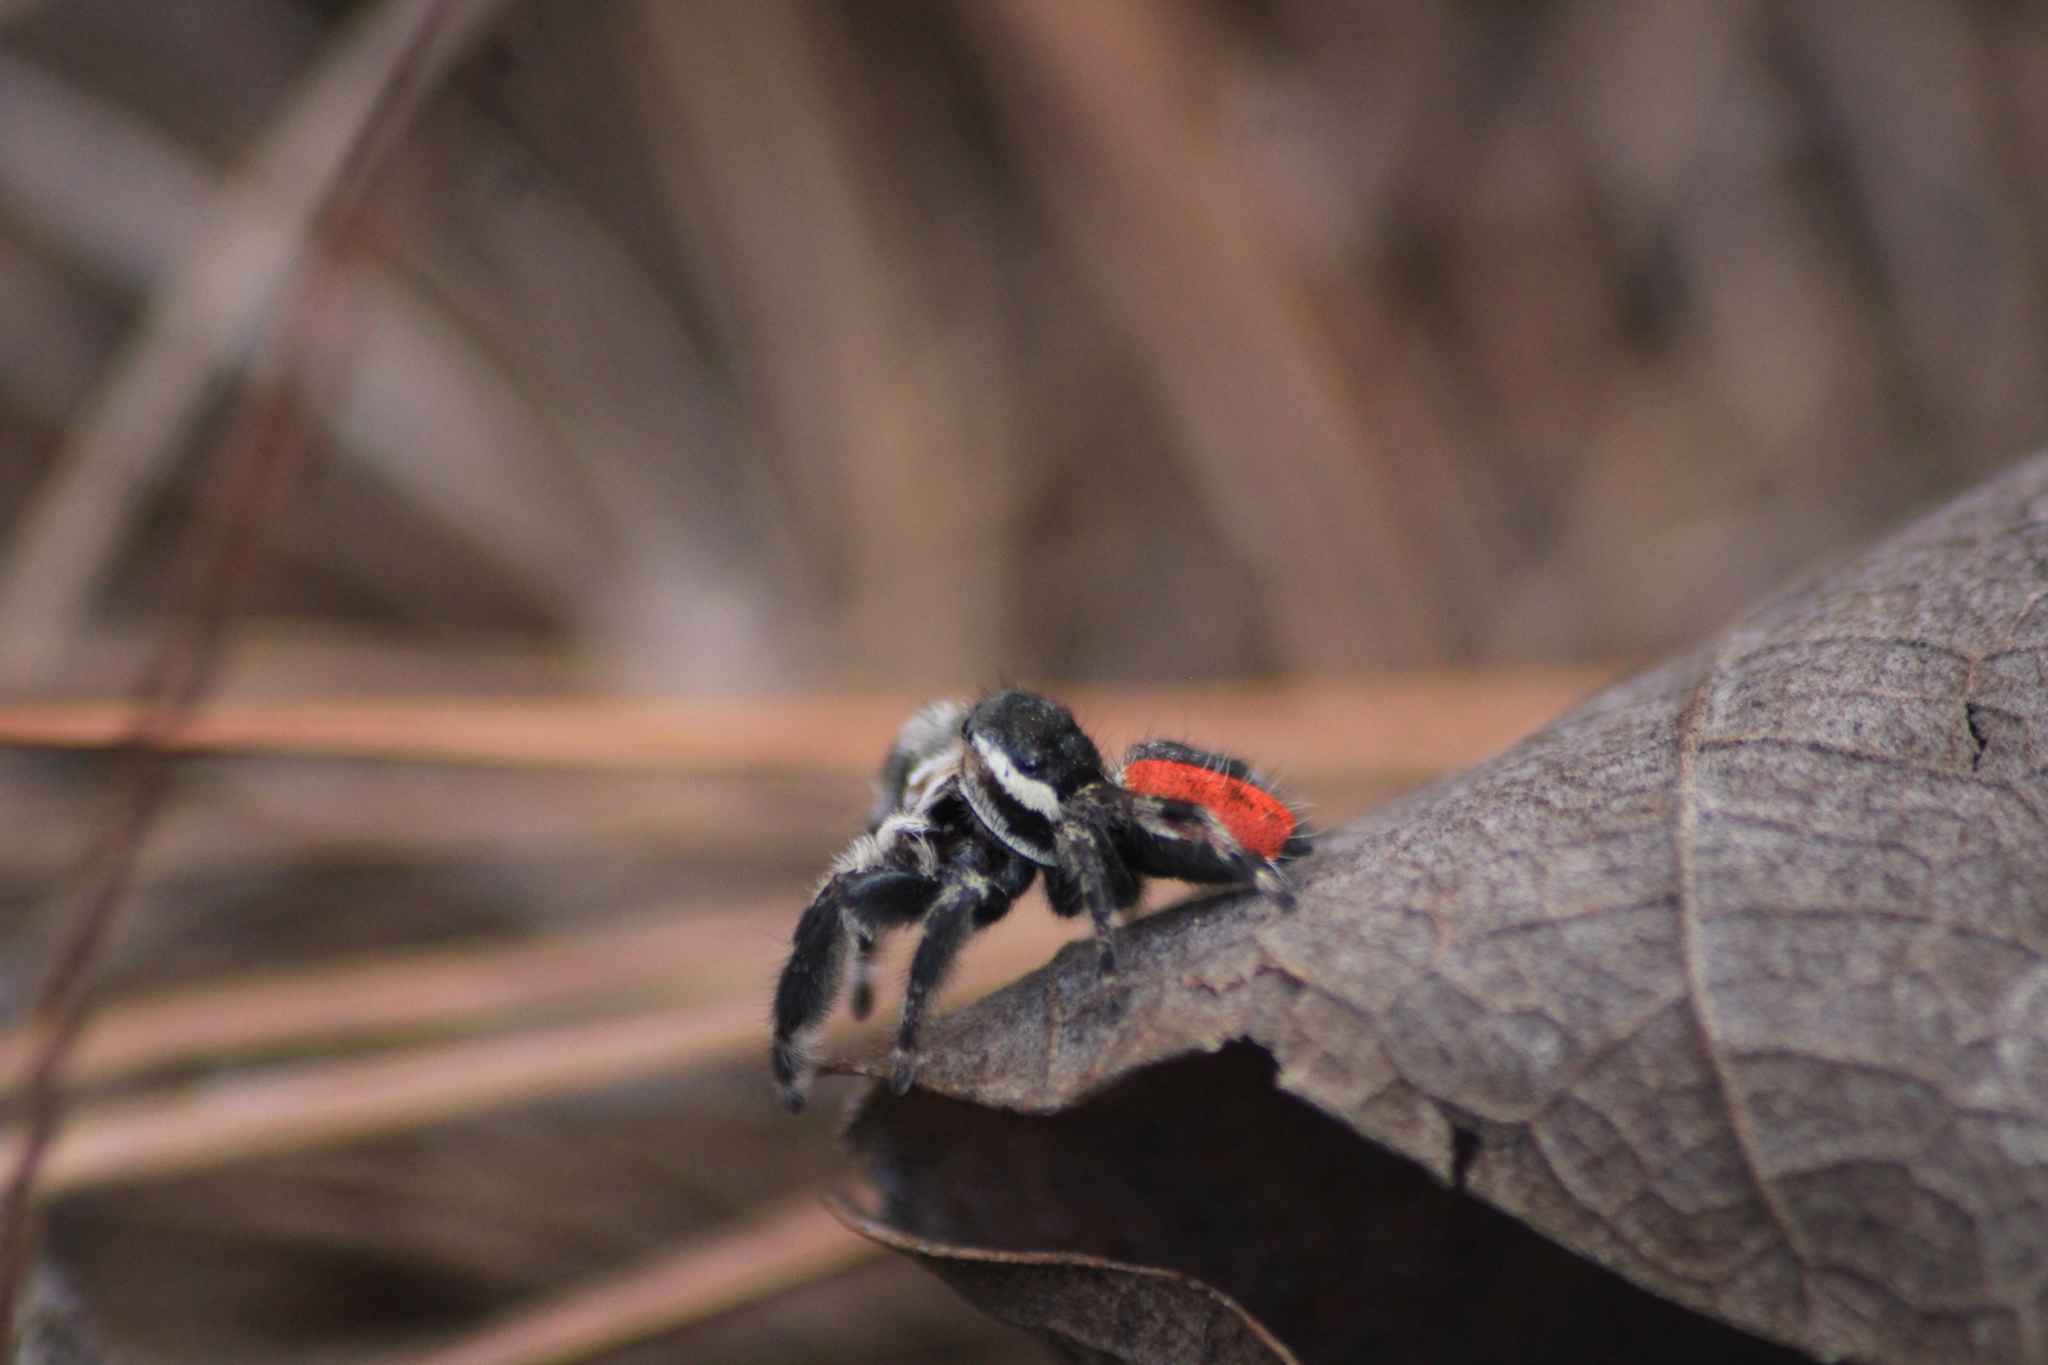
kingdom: Animalia
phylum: Arthropoda
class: Arachnida
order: Araneae
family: Salticidae
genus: Phidippus
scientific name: Phidippus zethus
